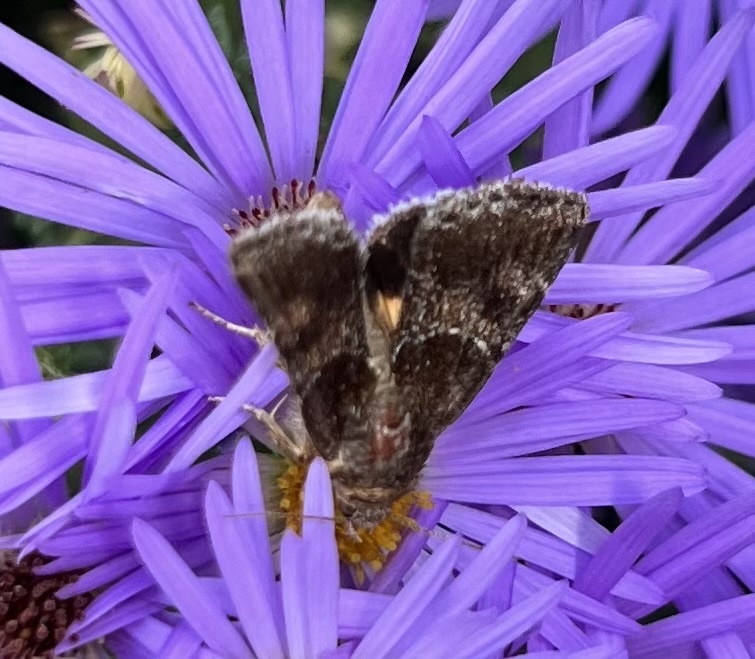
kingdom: Animalia
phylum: Arthropoda
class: Insecta
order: Lepidoptera
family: Noctuidae
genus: Schinia
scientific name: Schinia arcigera
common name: Arcigera flower moth
